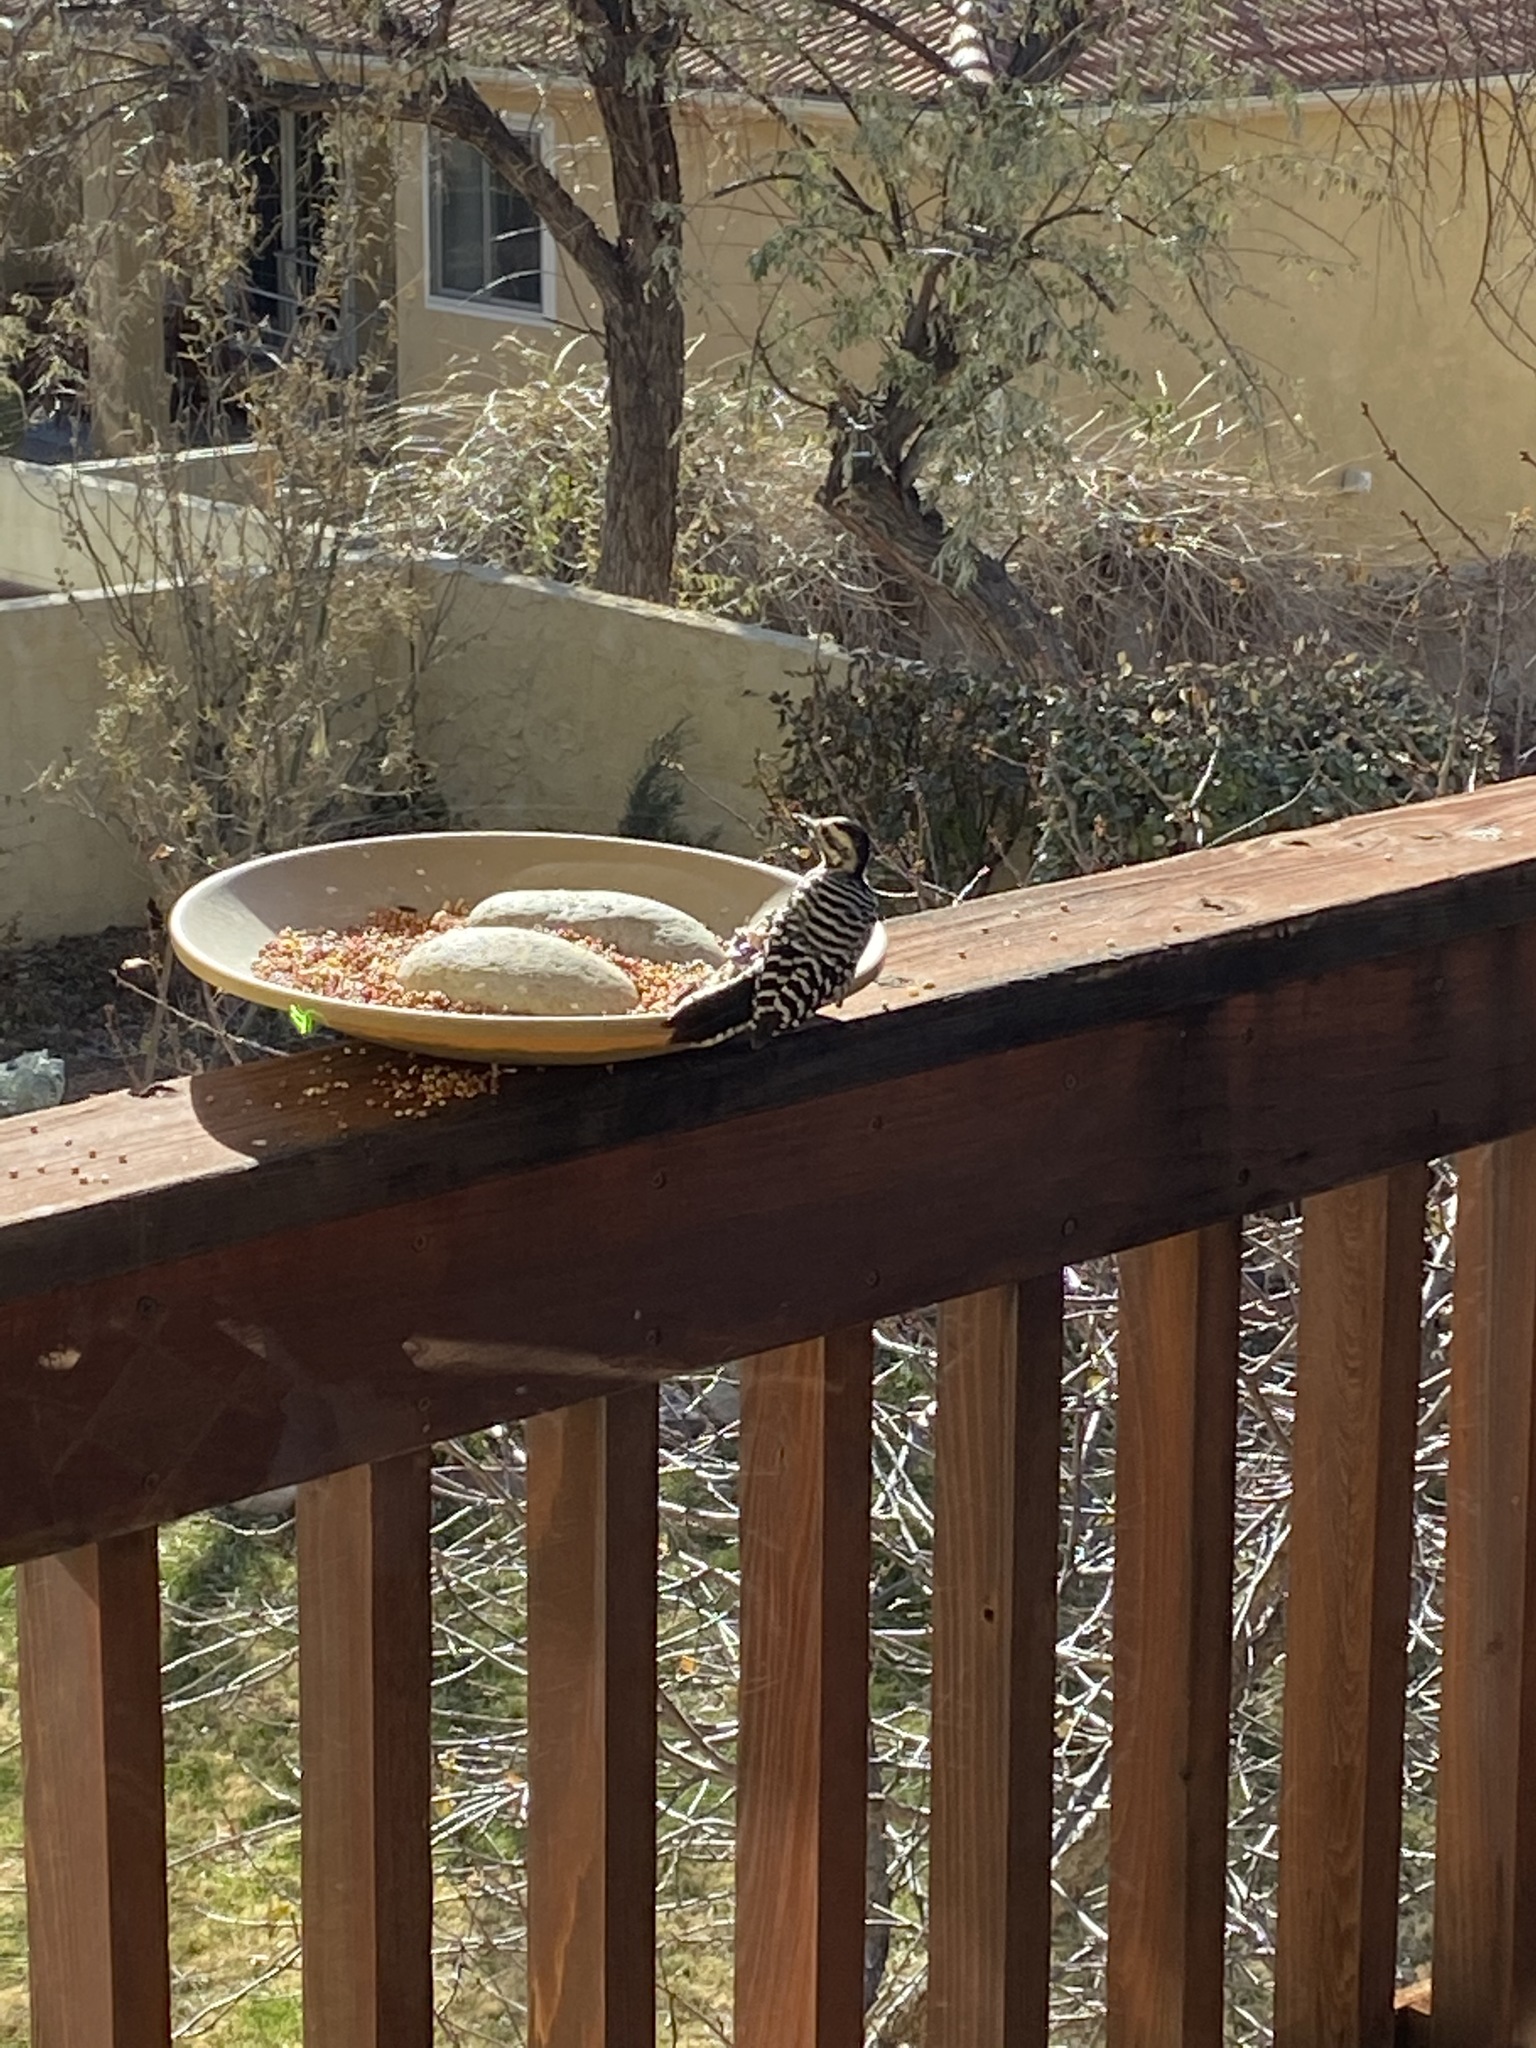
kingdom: Animalia
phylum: Chordata
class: Aves
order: Piciformes
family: Picidae
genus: Dryobates
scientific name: Dryobates scalaris
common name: Ladder-backed woodpecker
